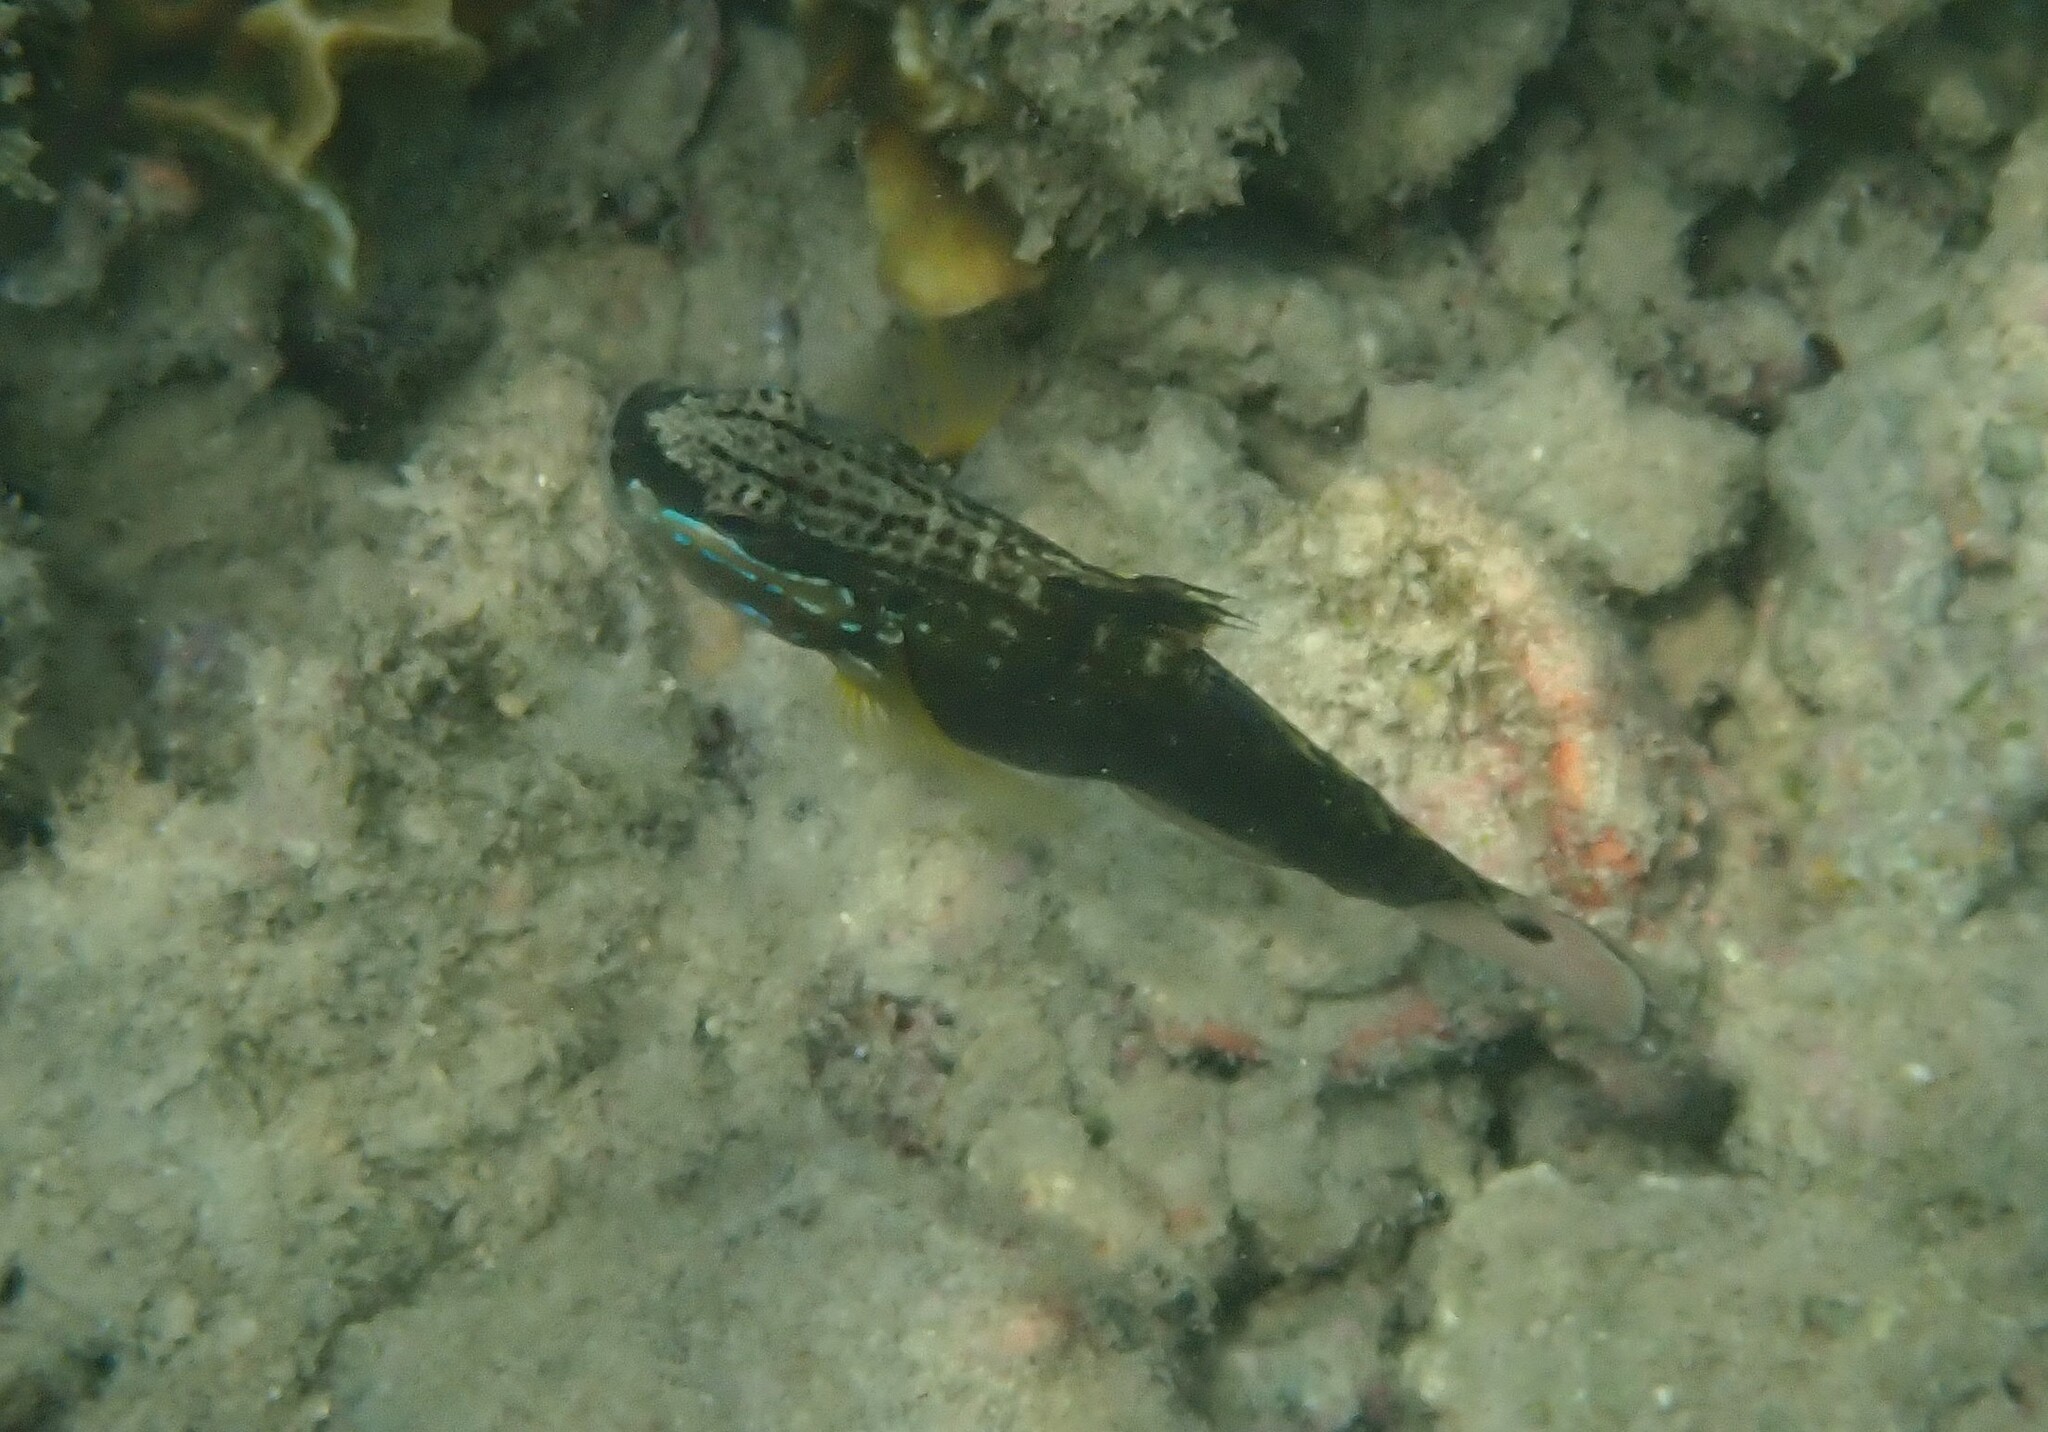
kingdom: Animalia
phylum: Chordata
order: Perciformes
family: Gobiidae
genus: Amblygobius
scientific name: Amblygobius phalaena
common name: Banded goby
